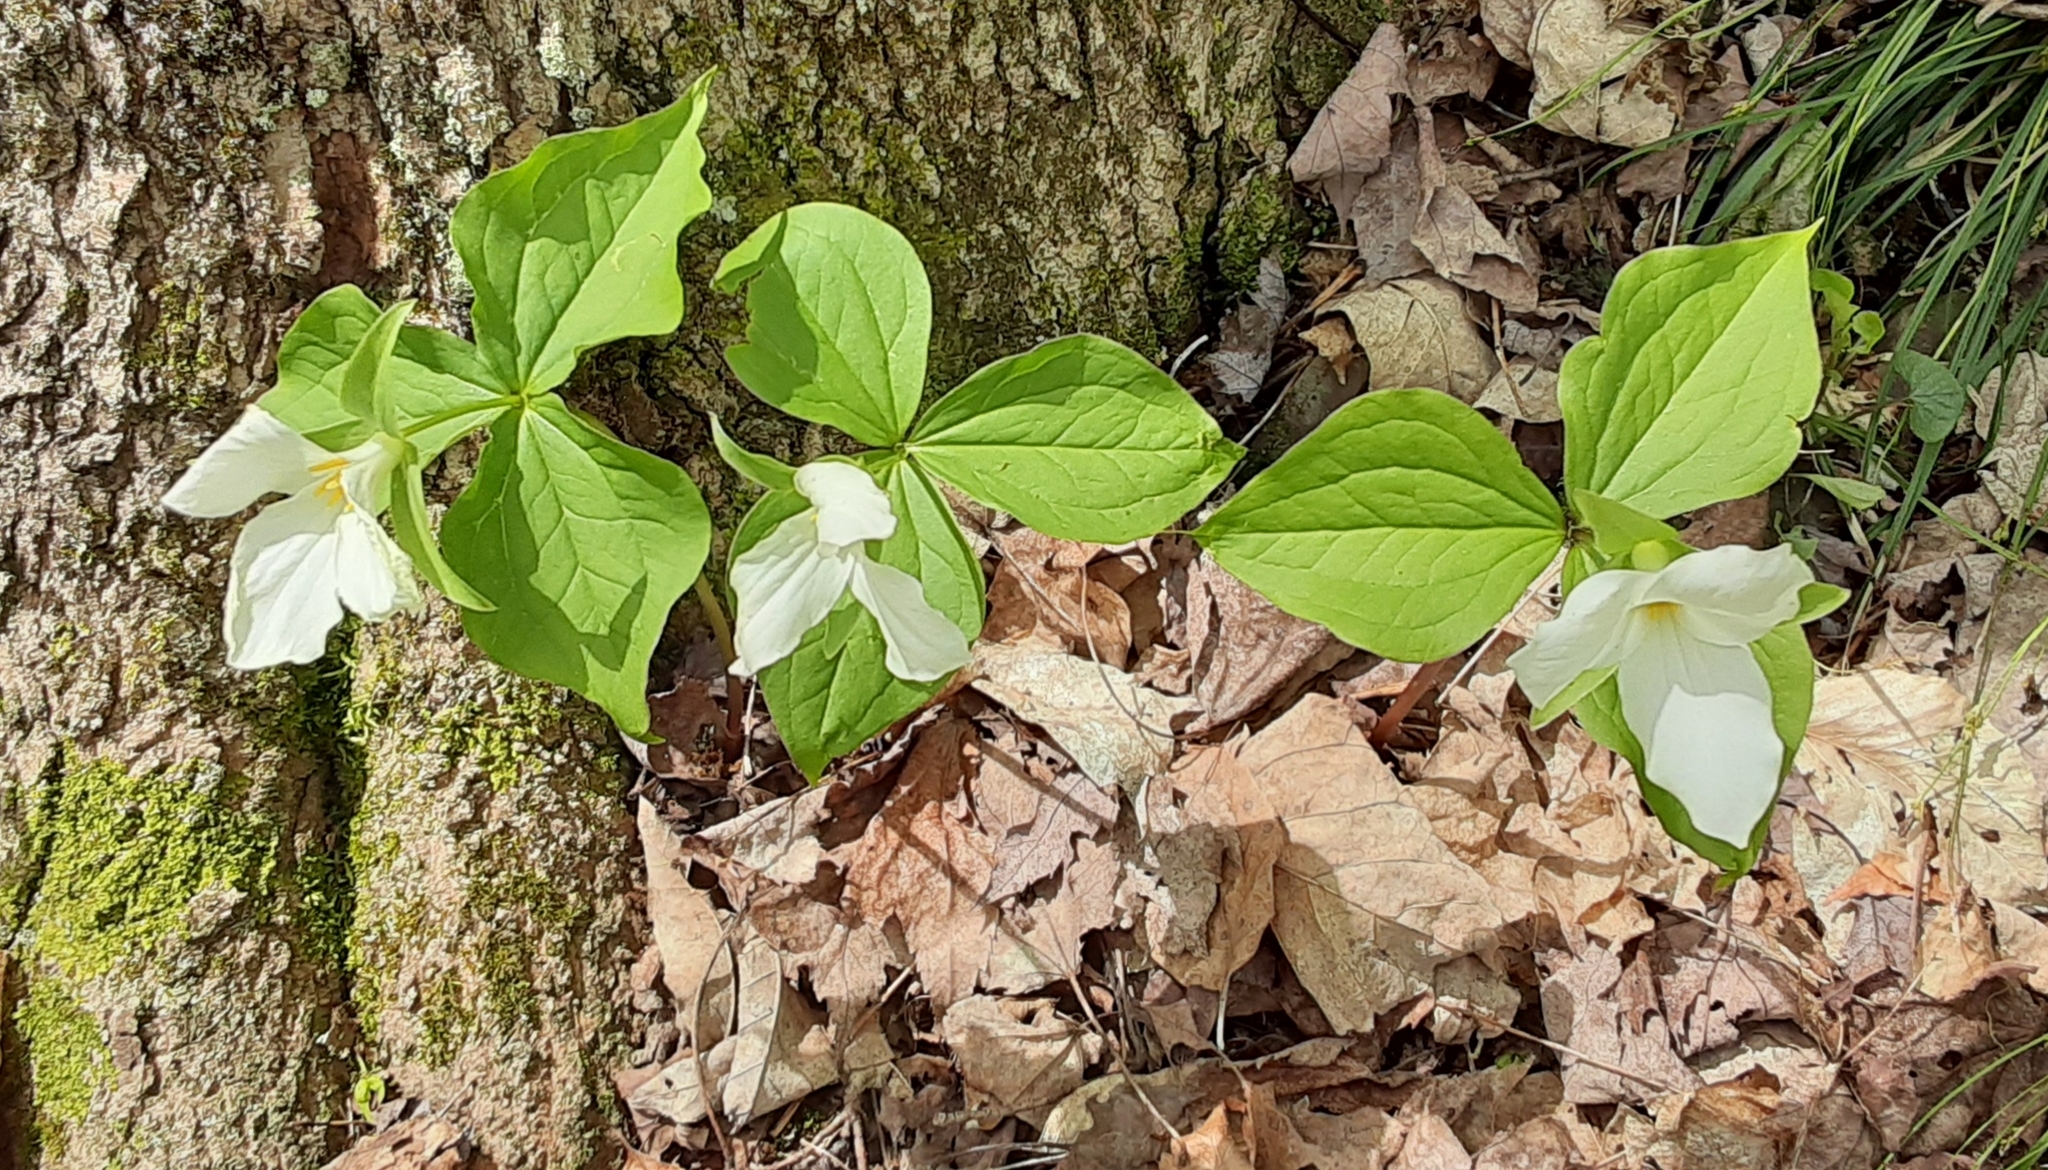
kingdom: Plantae
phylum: Tracheophyta
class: Liliopsida
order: Liliales
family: Melanthiaceae
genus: Trillium
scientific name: Trillium grandiflorum
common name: Great white trillium
